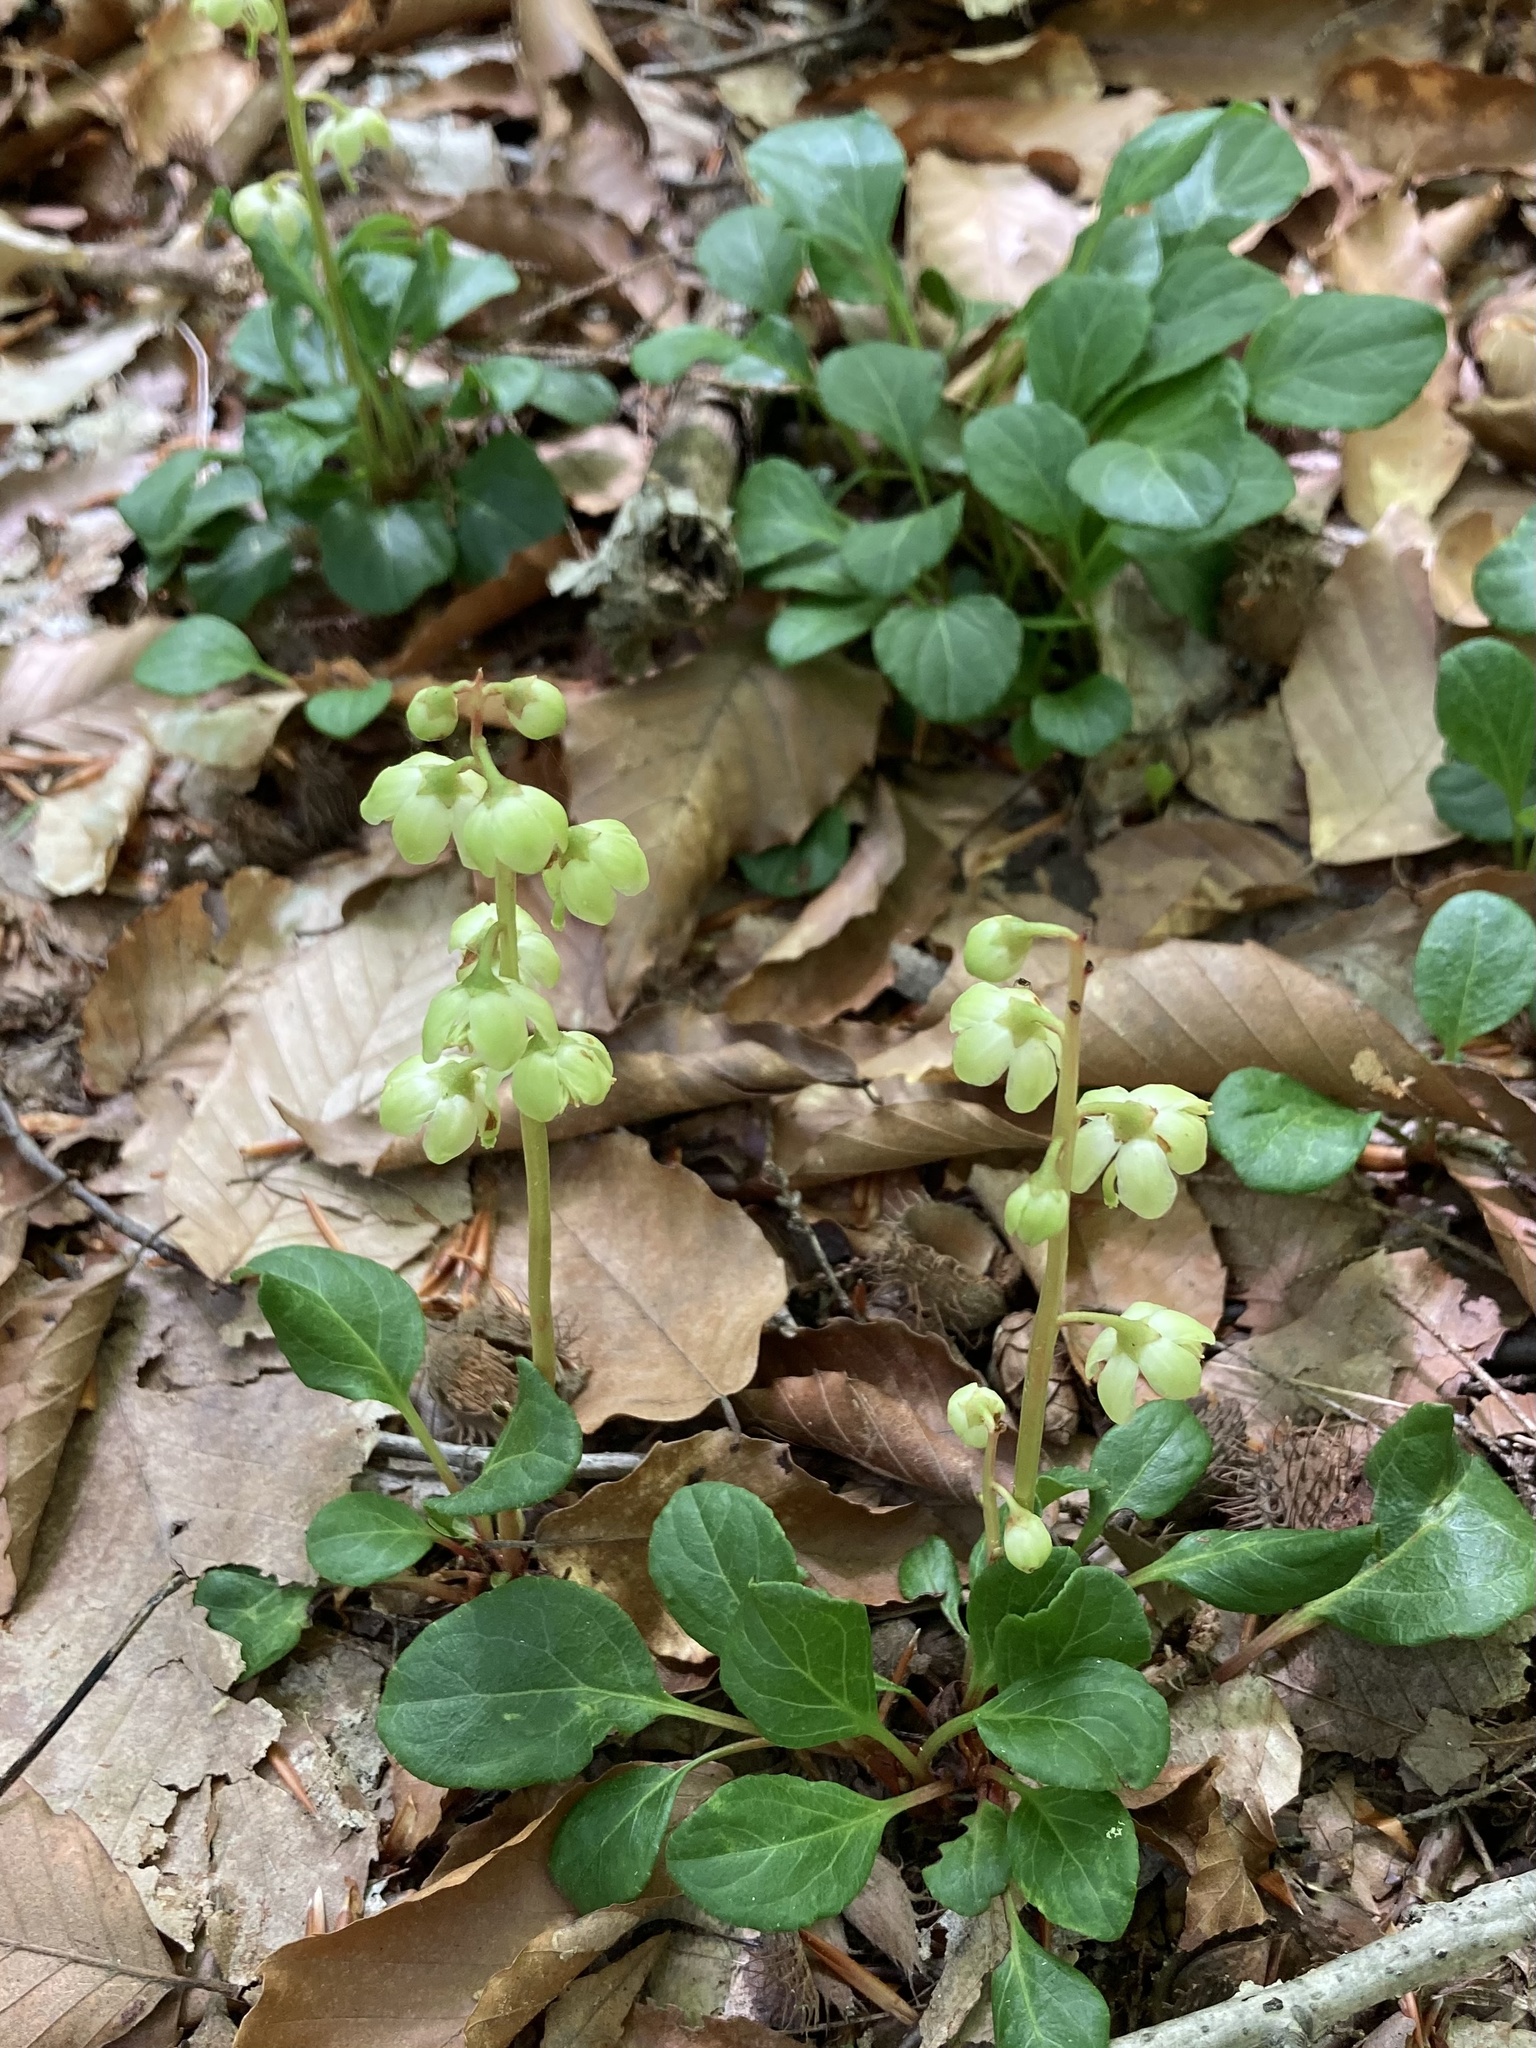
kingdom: Plantae
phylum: Tracheophyta
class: Magnoliopsida
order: Ericales
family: Ericaceae
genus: Pyrola
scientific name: Pyrola chlorantha
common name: Green wintergreen
